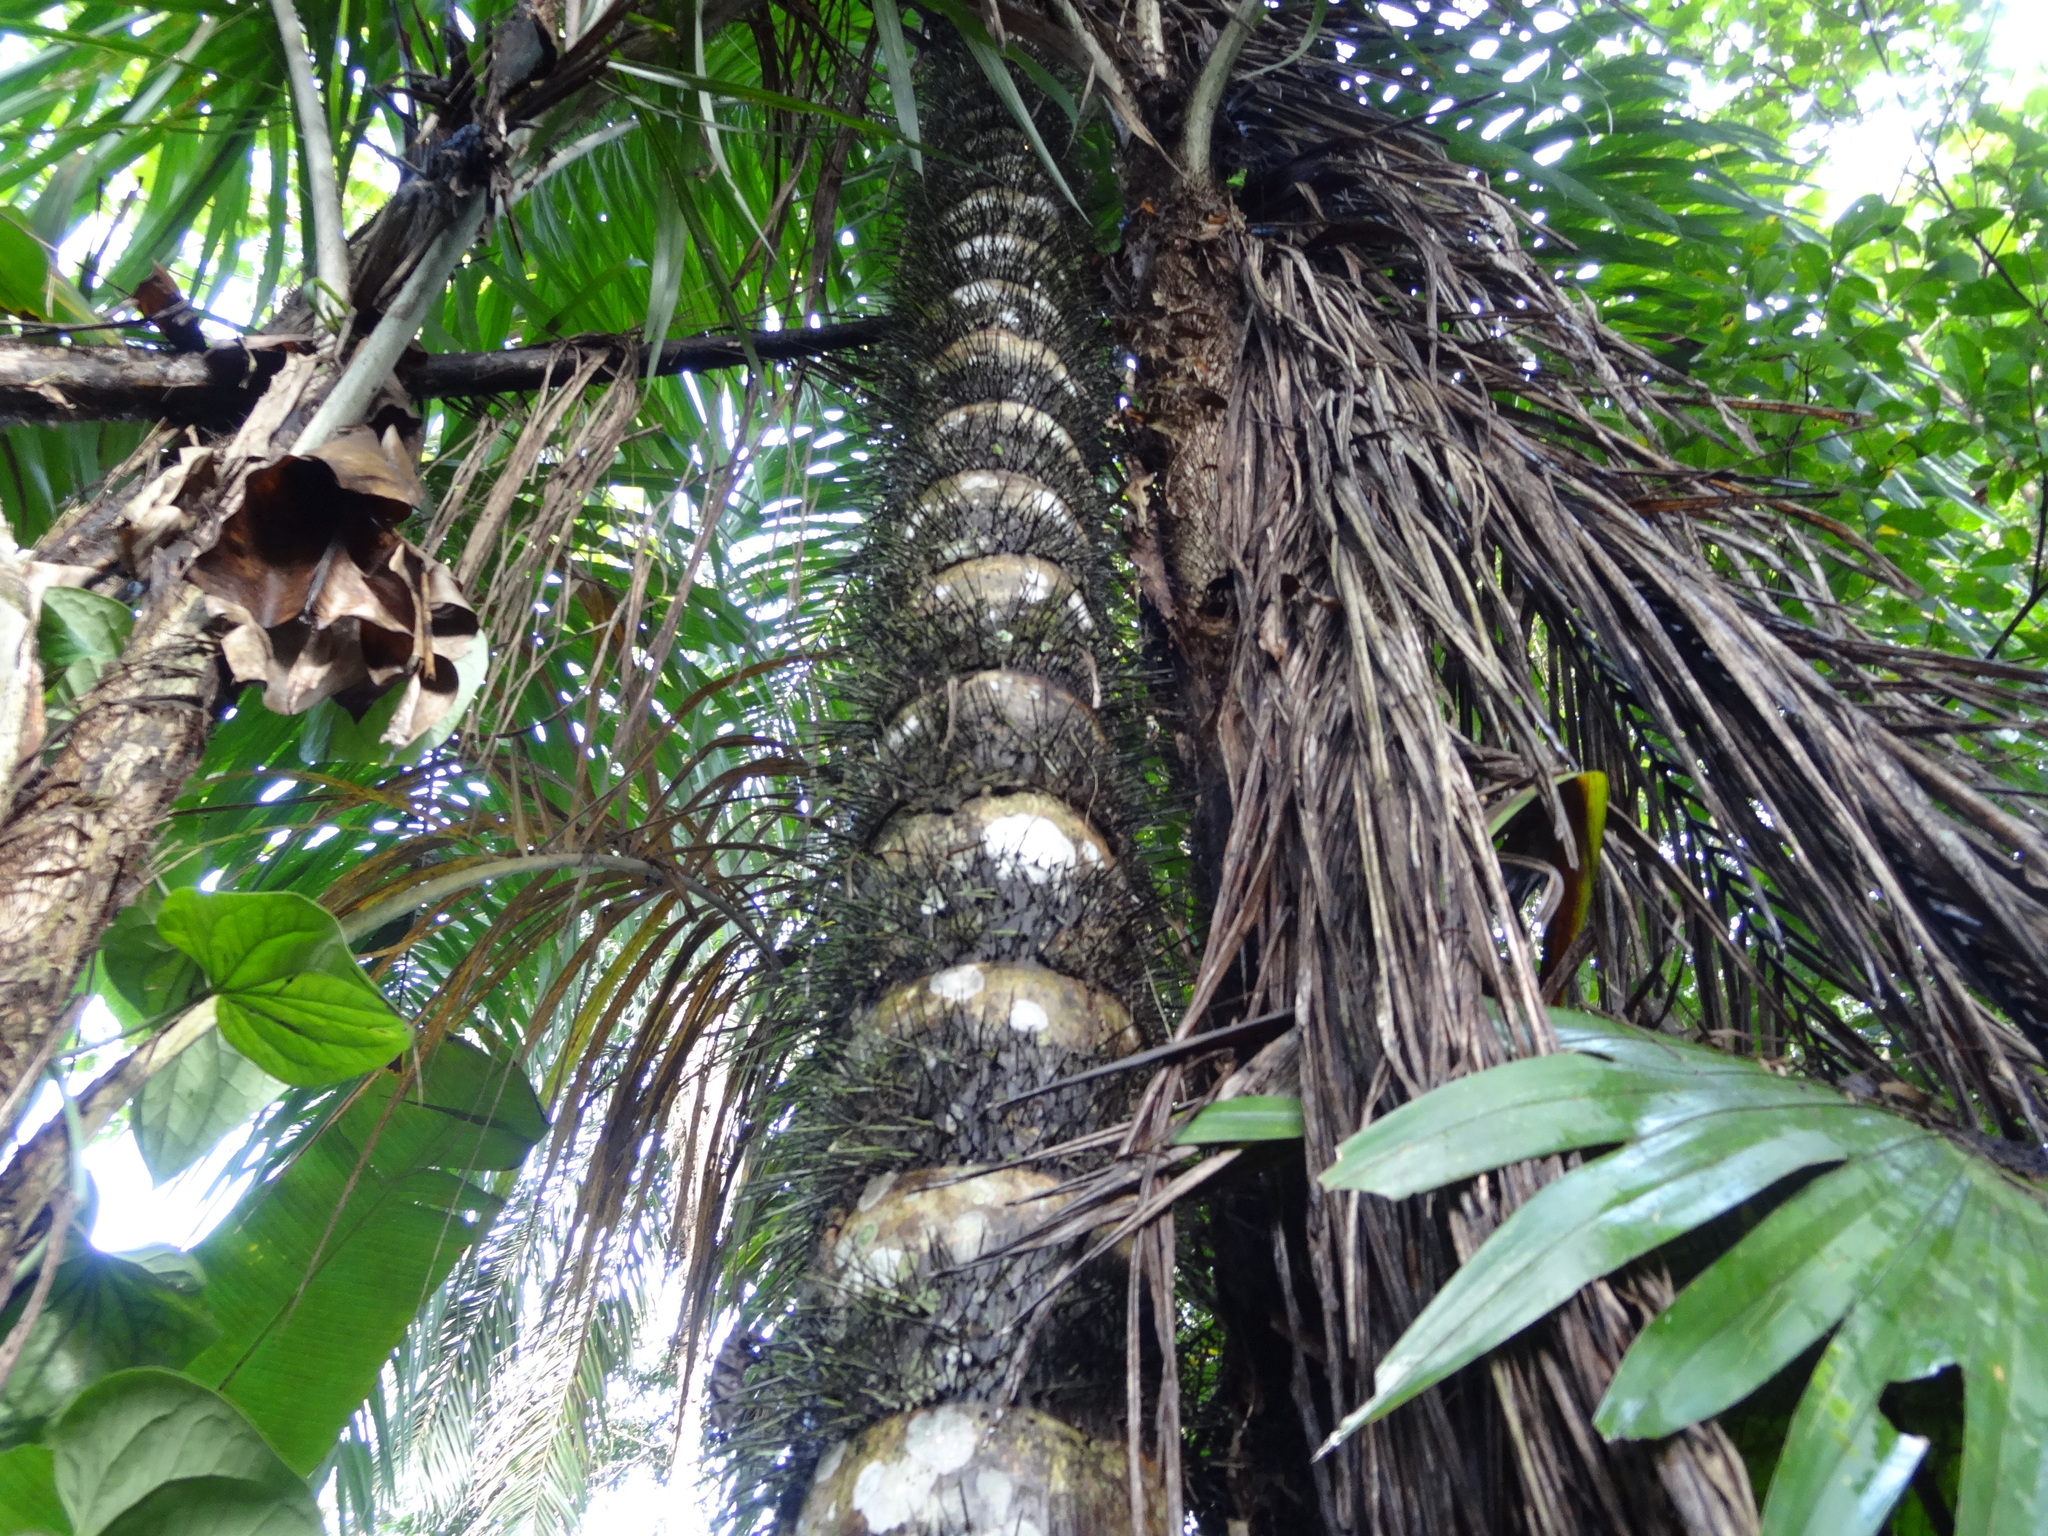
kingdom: Plantae
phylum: Tracheophyta
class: Liliopsida
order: Arecales
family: Arecaceae
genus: Bactris
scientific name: Bactris gasipaes
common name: Peach palm
